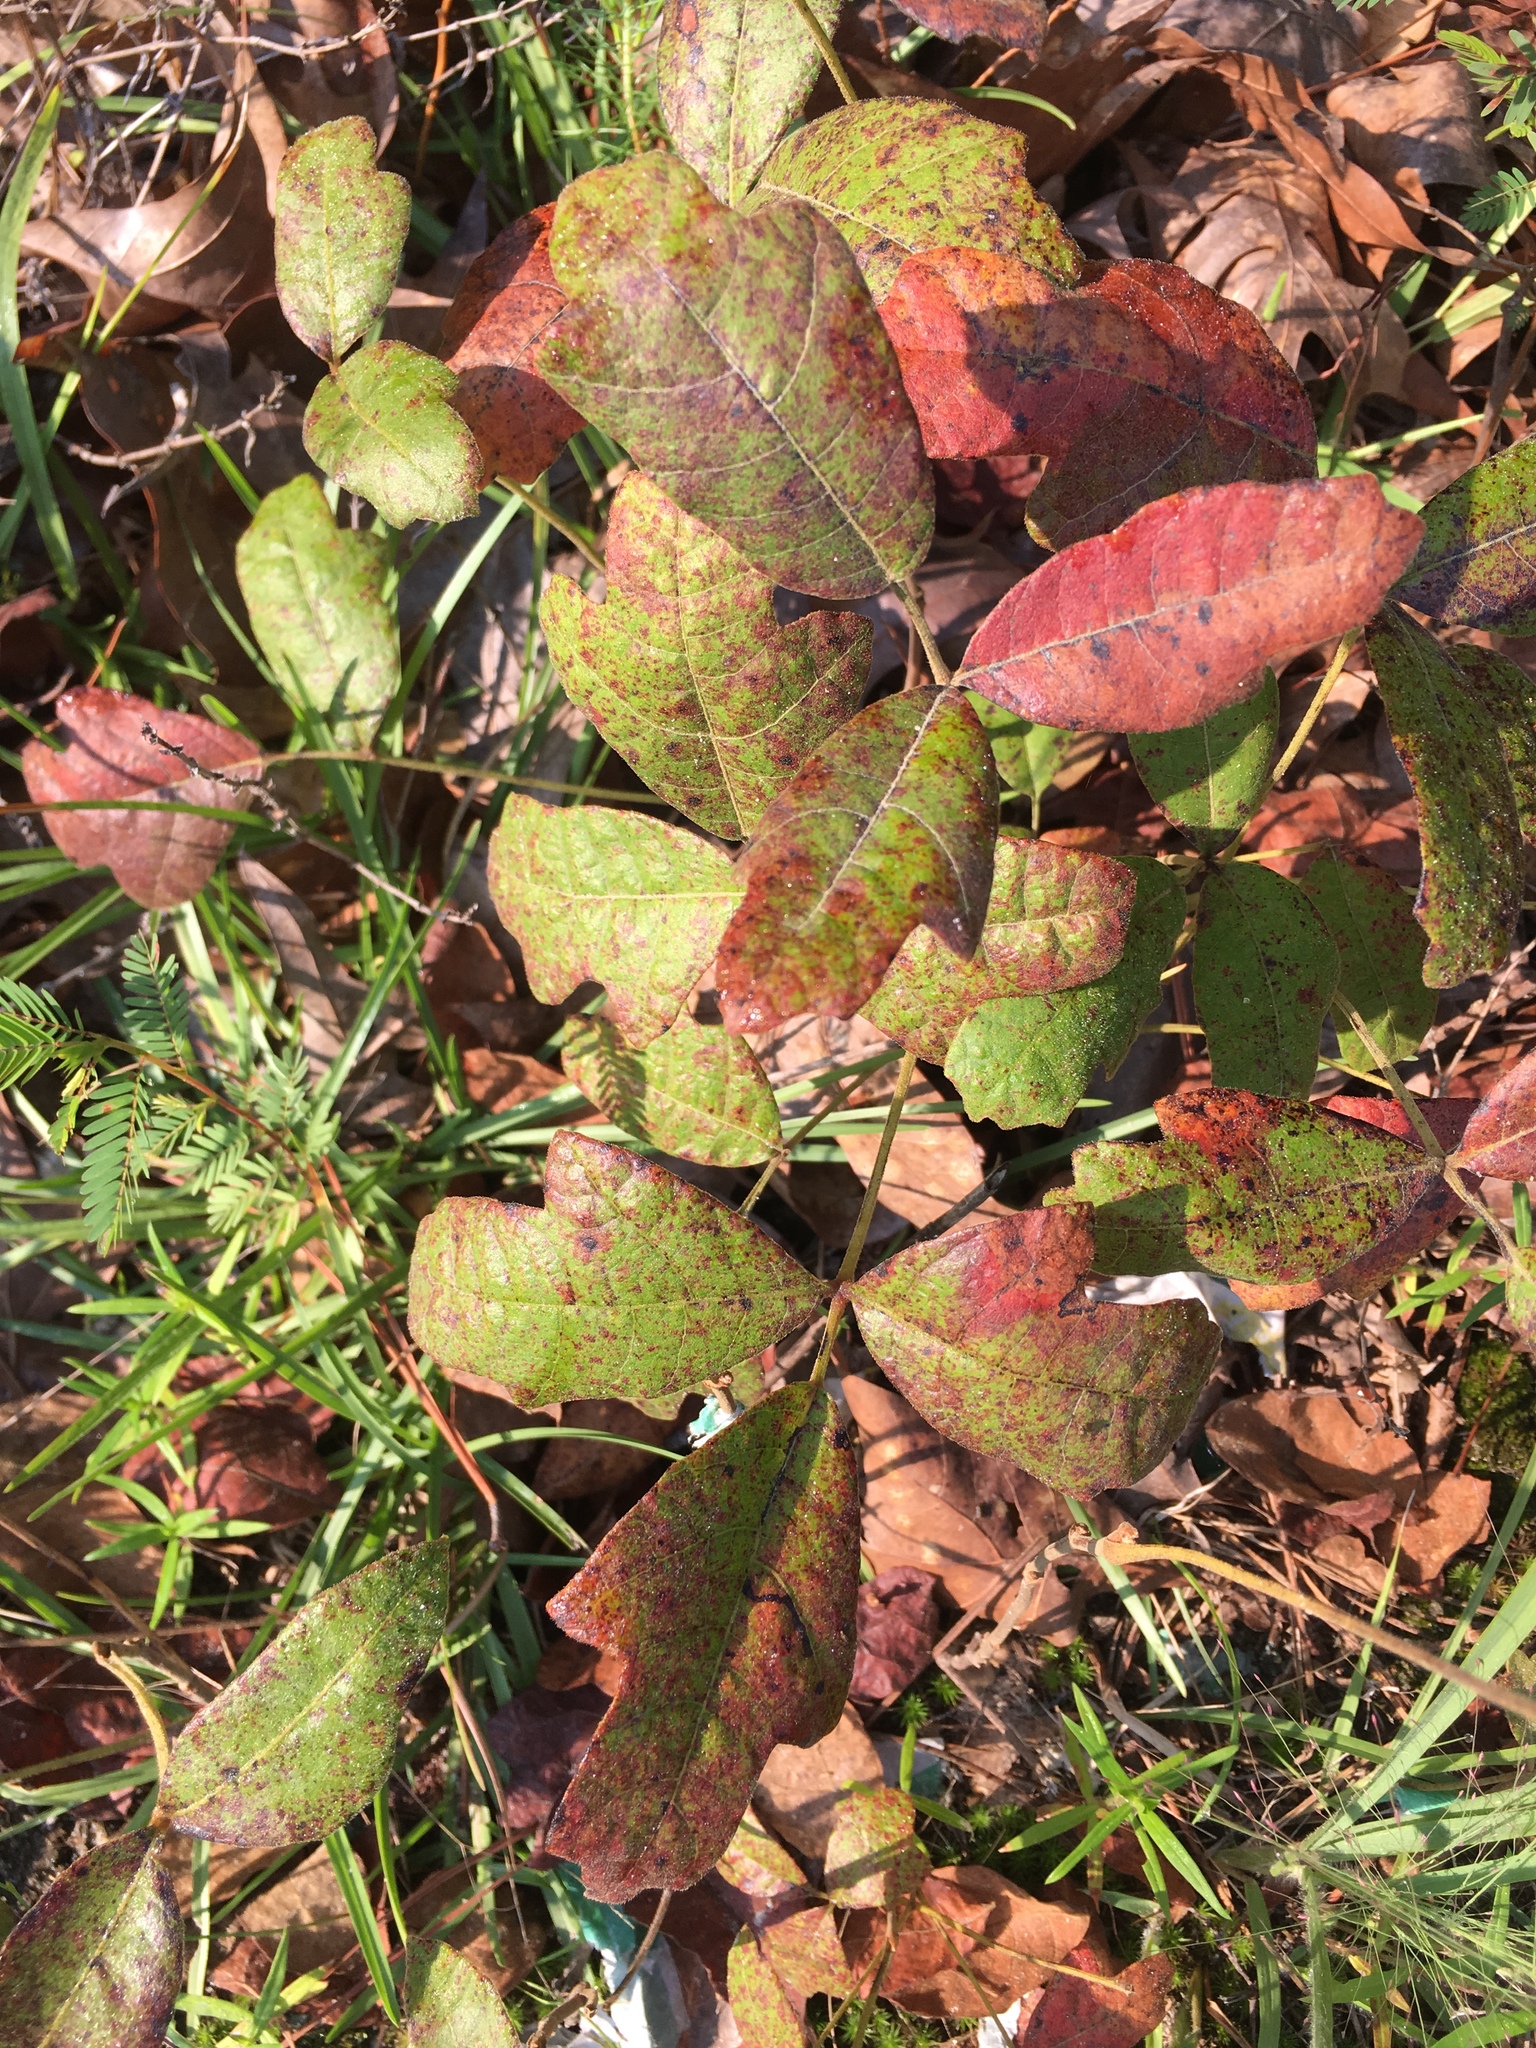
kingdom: Plantae
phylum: Tracheophyta
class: Magnoliopsida
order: Sapindales
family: Anacardiaceae
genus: Toxicodendron
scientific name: Toxicodendron pubescens
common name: Eastern poison-oak
